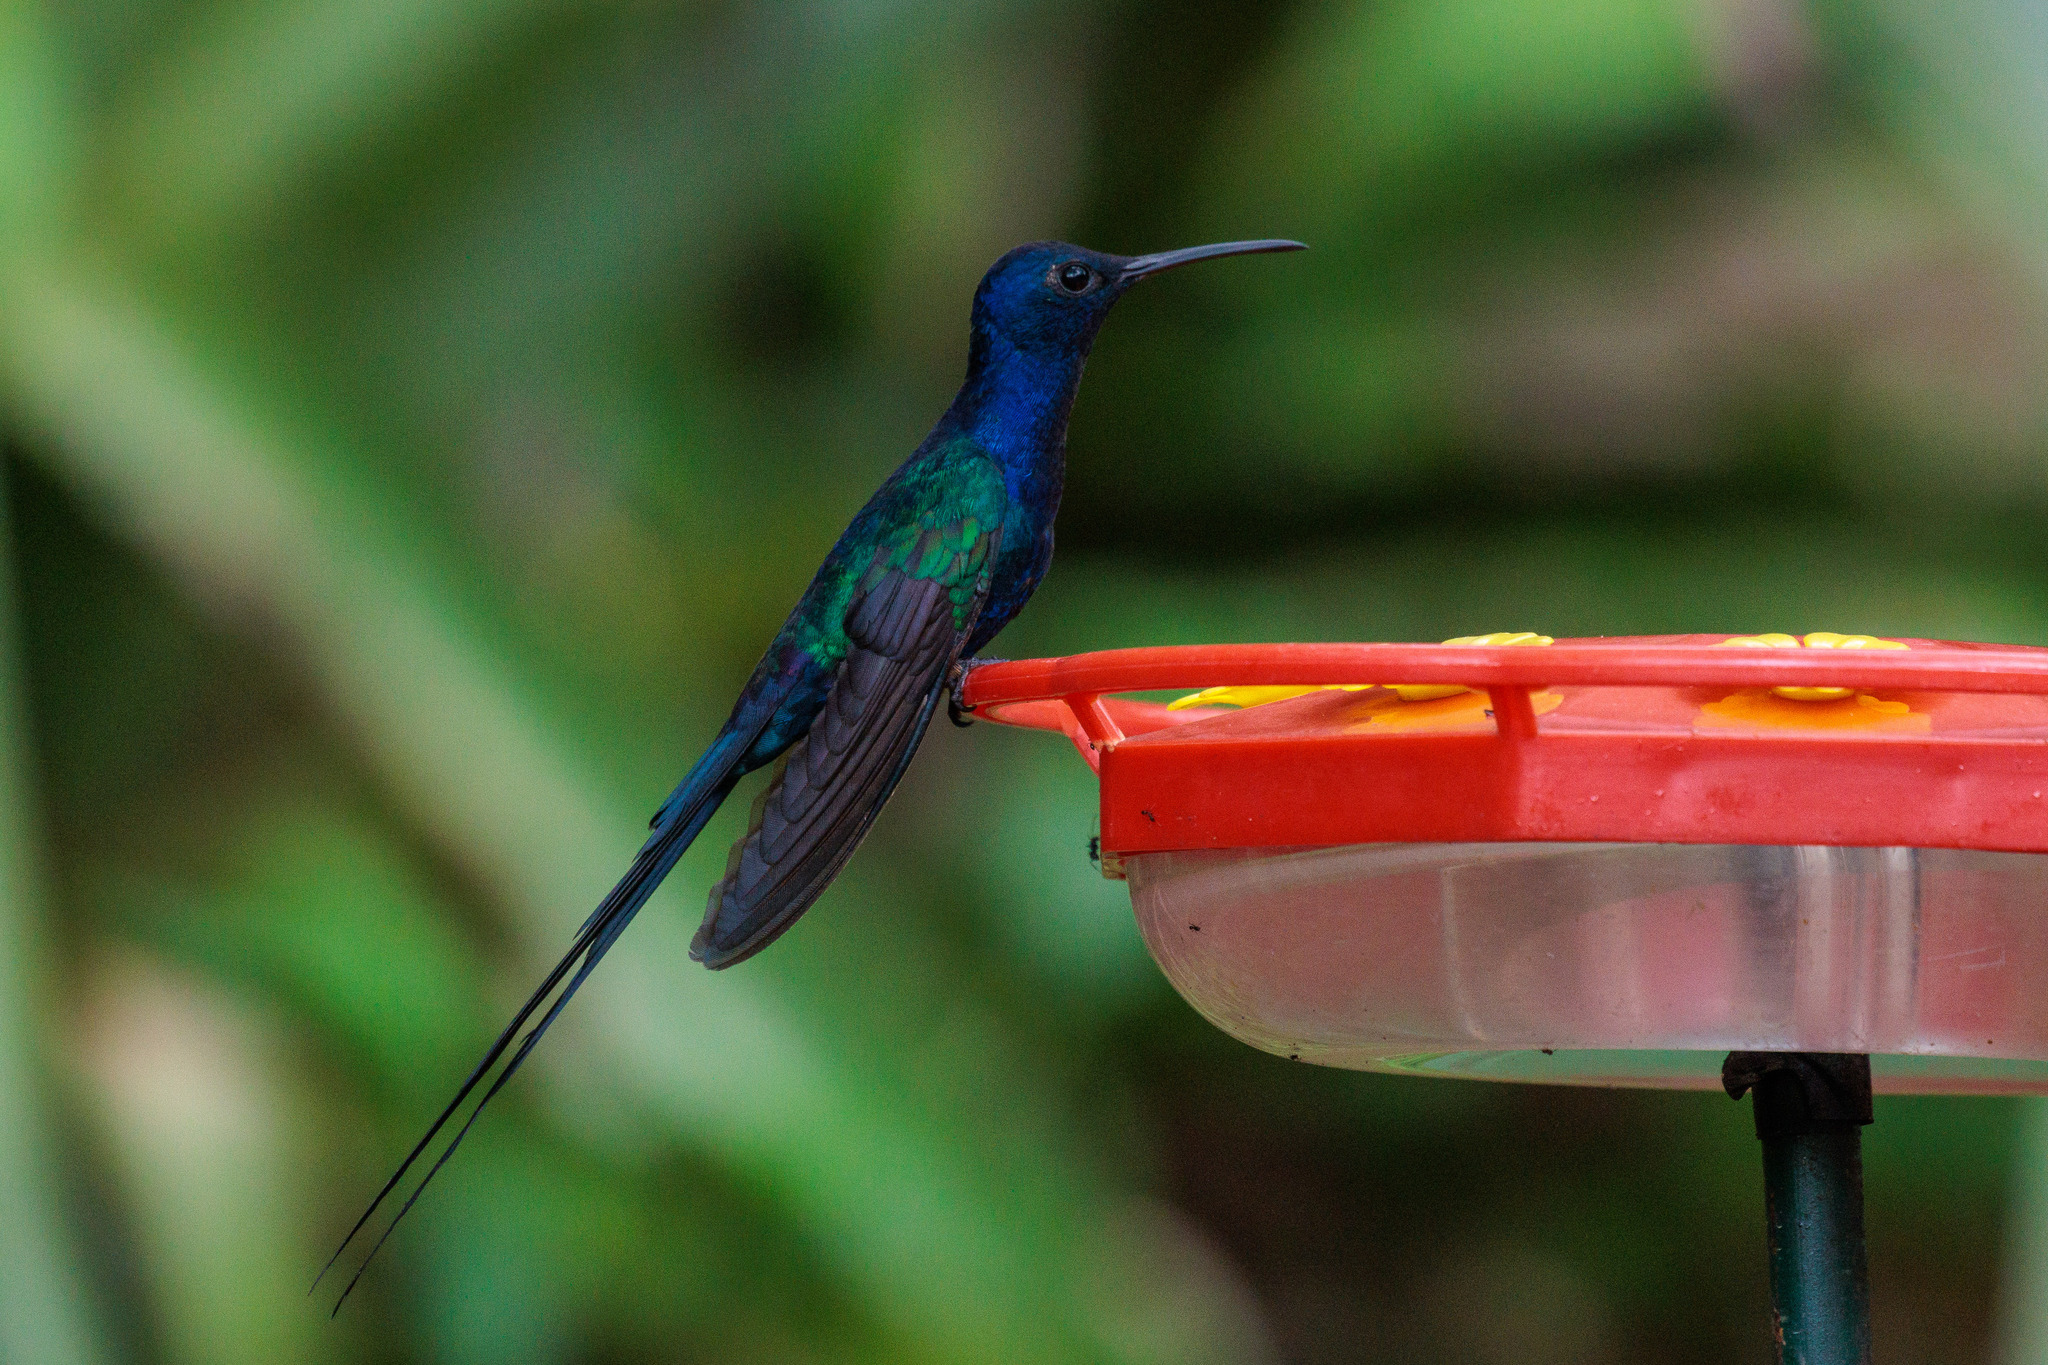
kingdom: Animalia
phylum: Chordata
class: Aves
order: Apodiformes
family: Trochilidae
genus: Eupetomena
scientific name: Eupetomena macroura
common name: Swallow-tailed hummingbird
